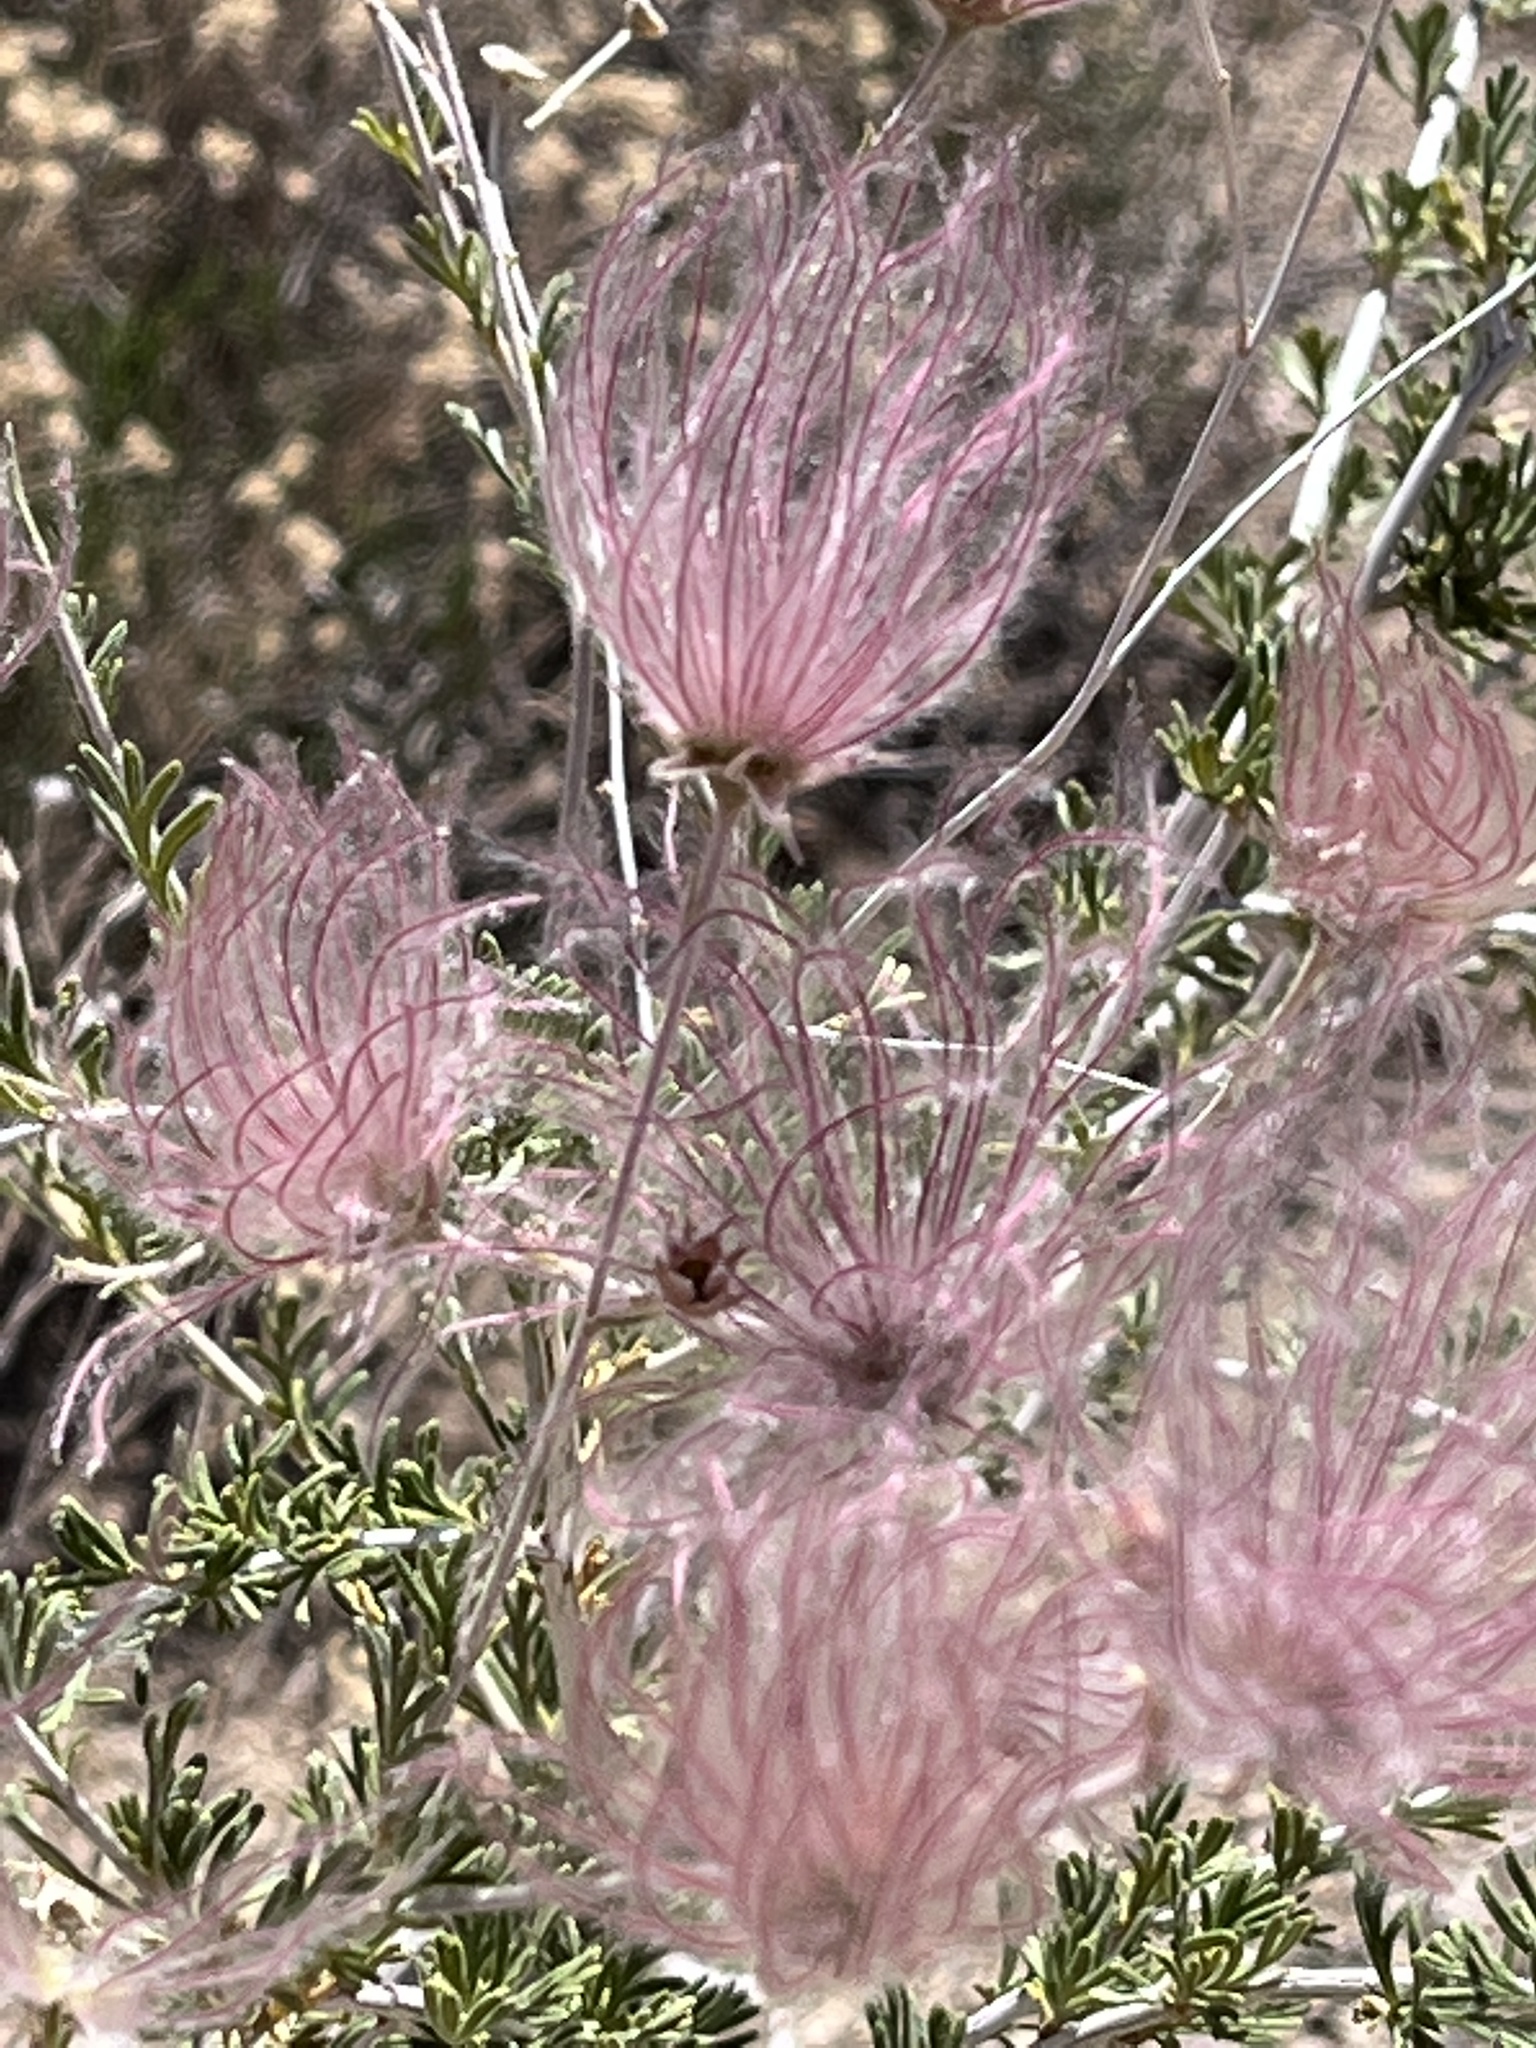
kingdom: Plantae
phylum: Tracheophyta
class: Magnoliopsida
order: Rosales
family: Rosaceae
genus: Fallugia
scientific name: Fallugia paradoxa
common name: Apache-plume
